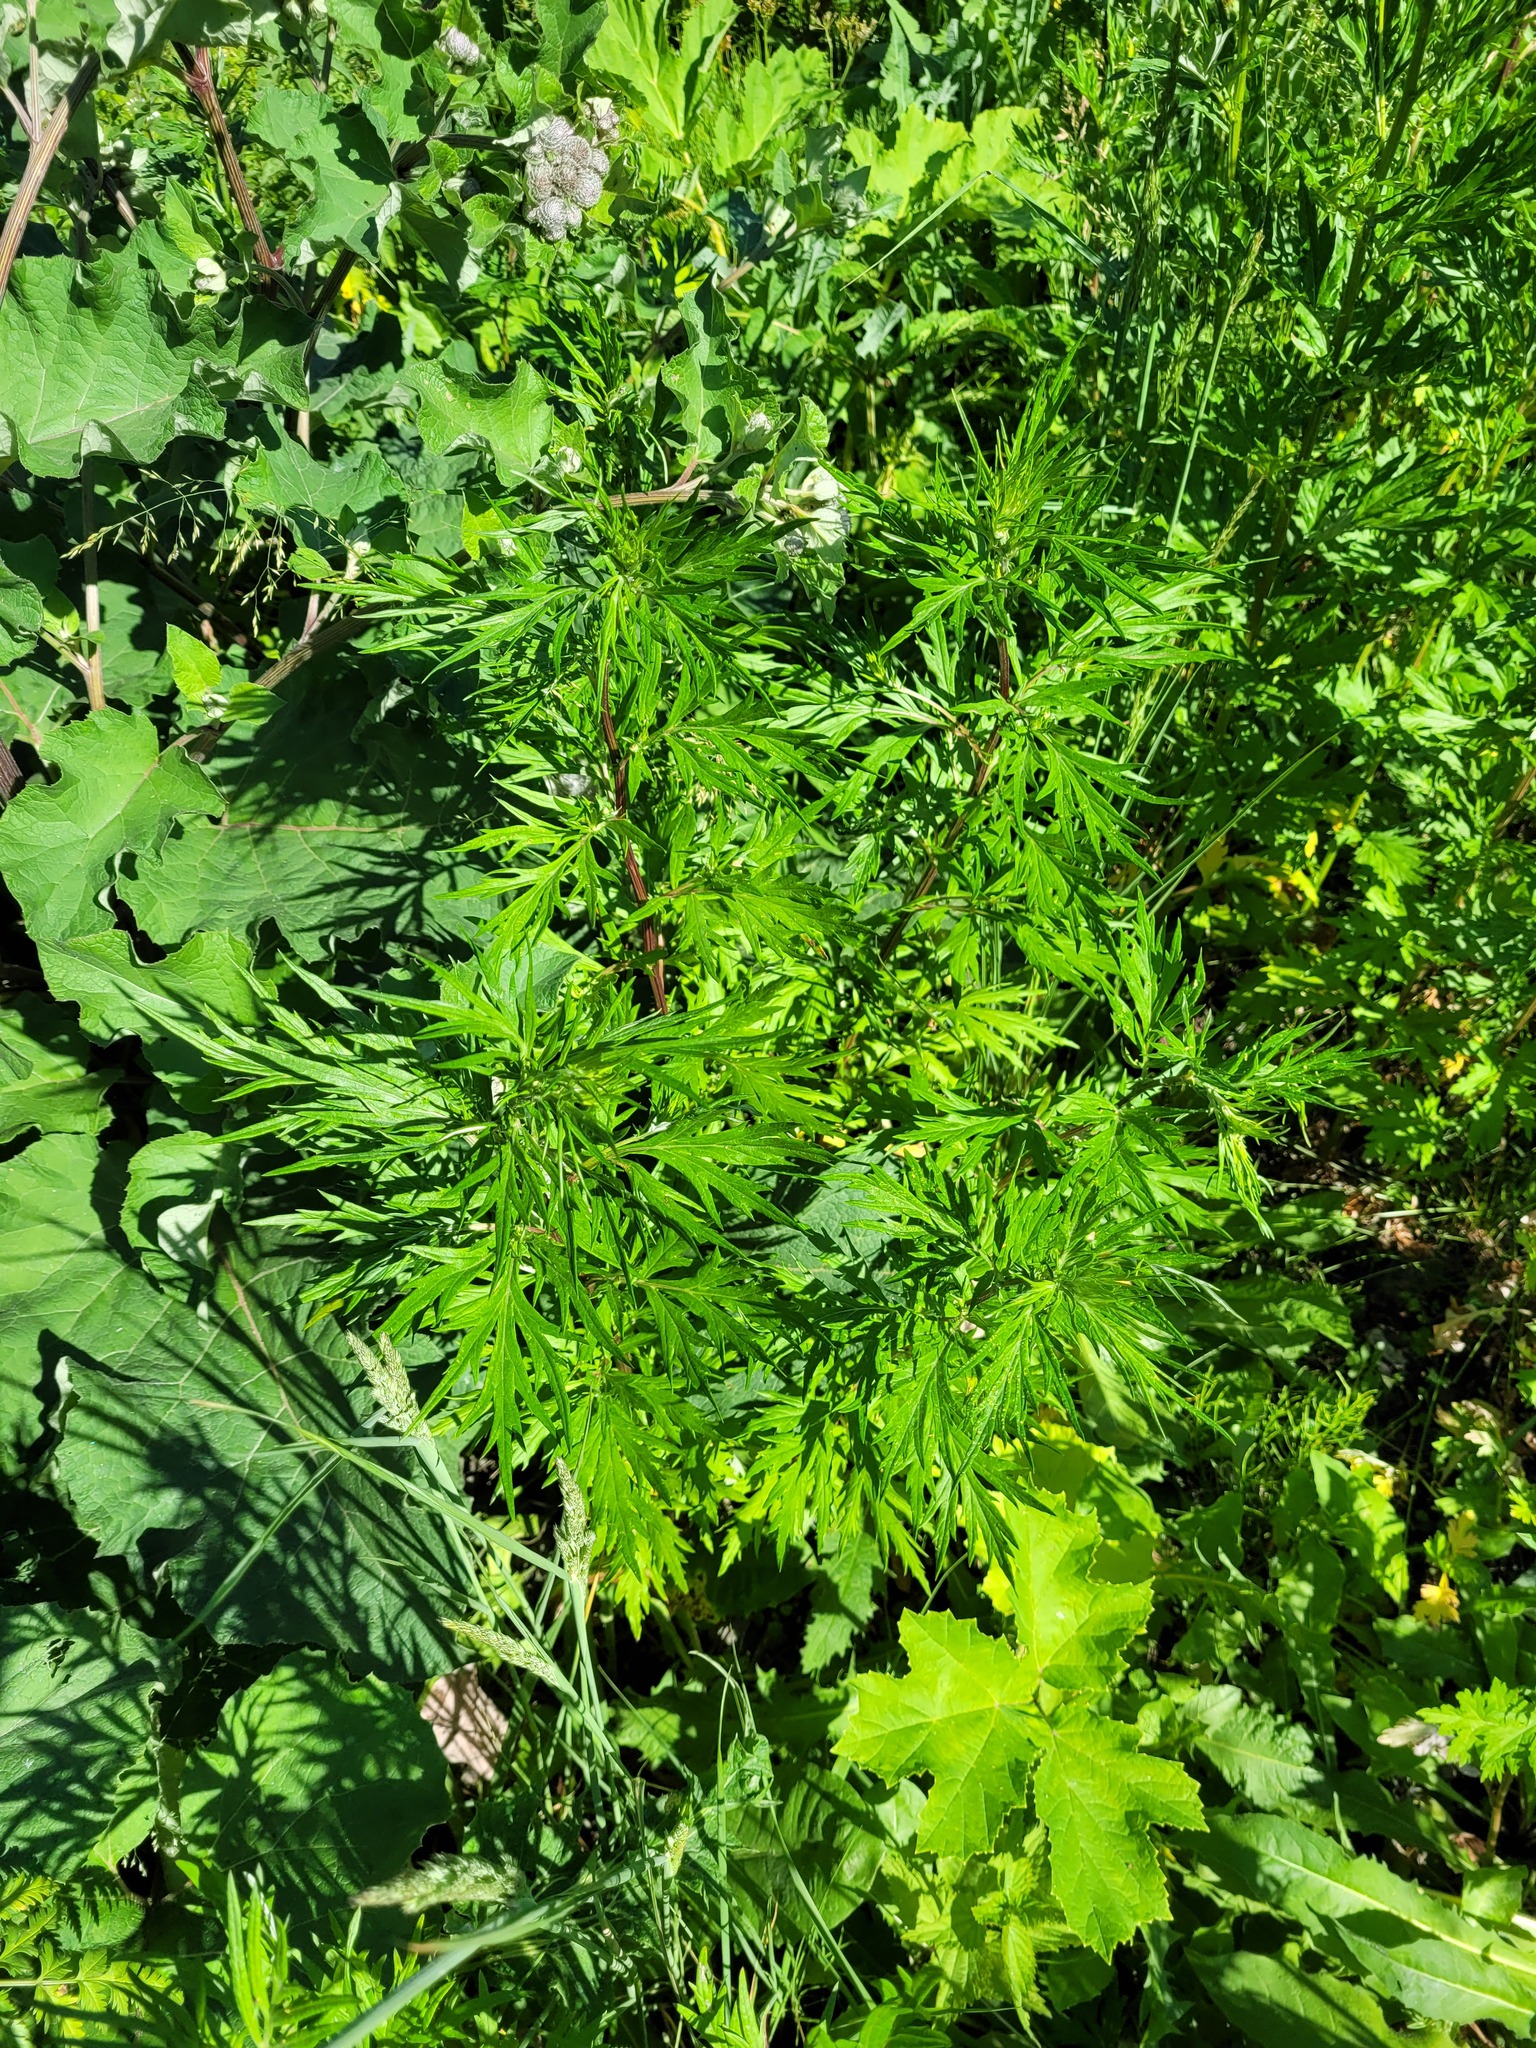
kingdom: Plantae
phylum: Tracheophyta
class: Magnoliopsida
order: Asterales
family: Asteraceae
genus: Artemisia
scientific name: Artemisia vulgaris
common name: Mugwort
